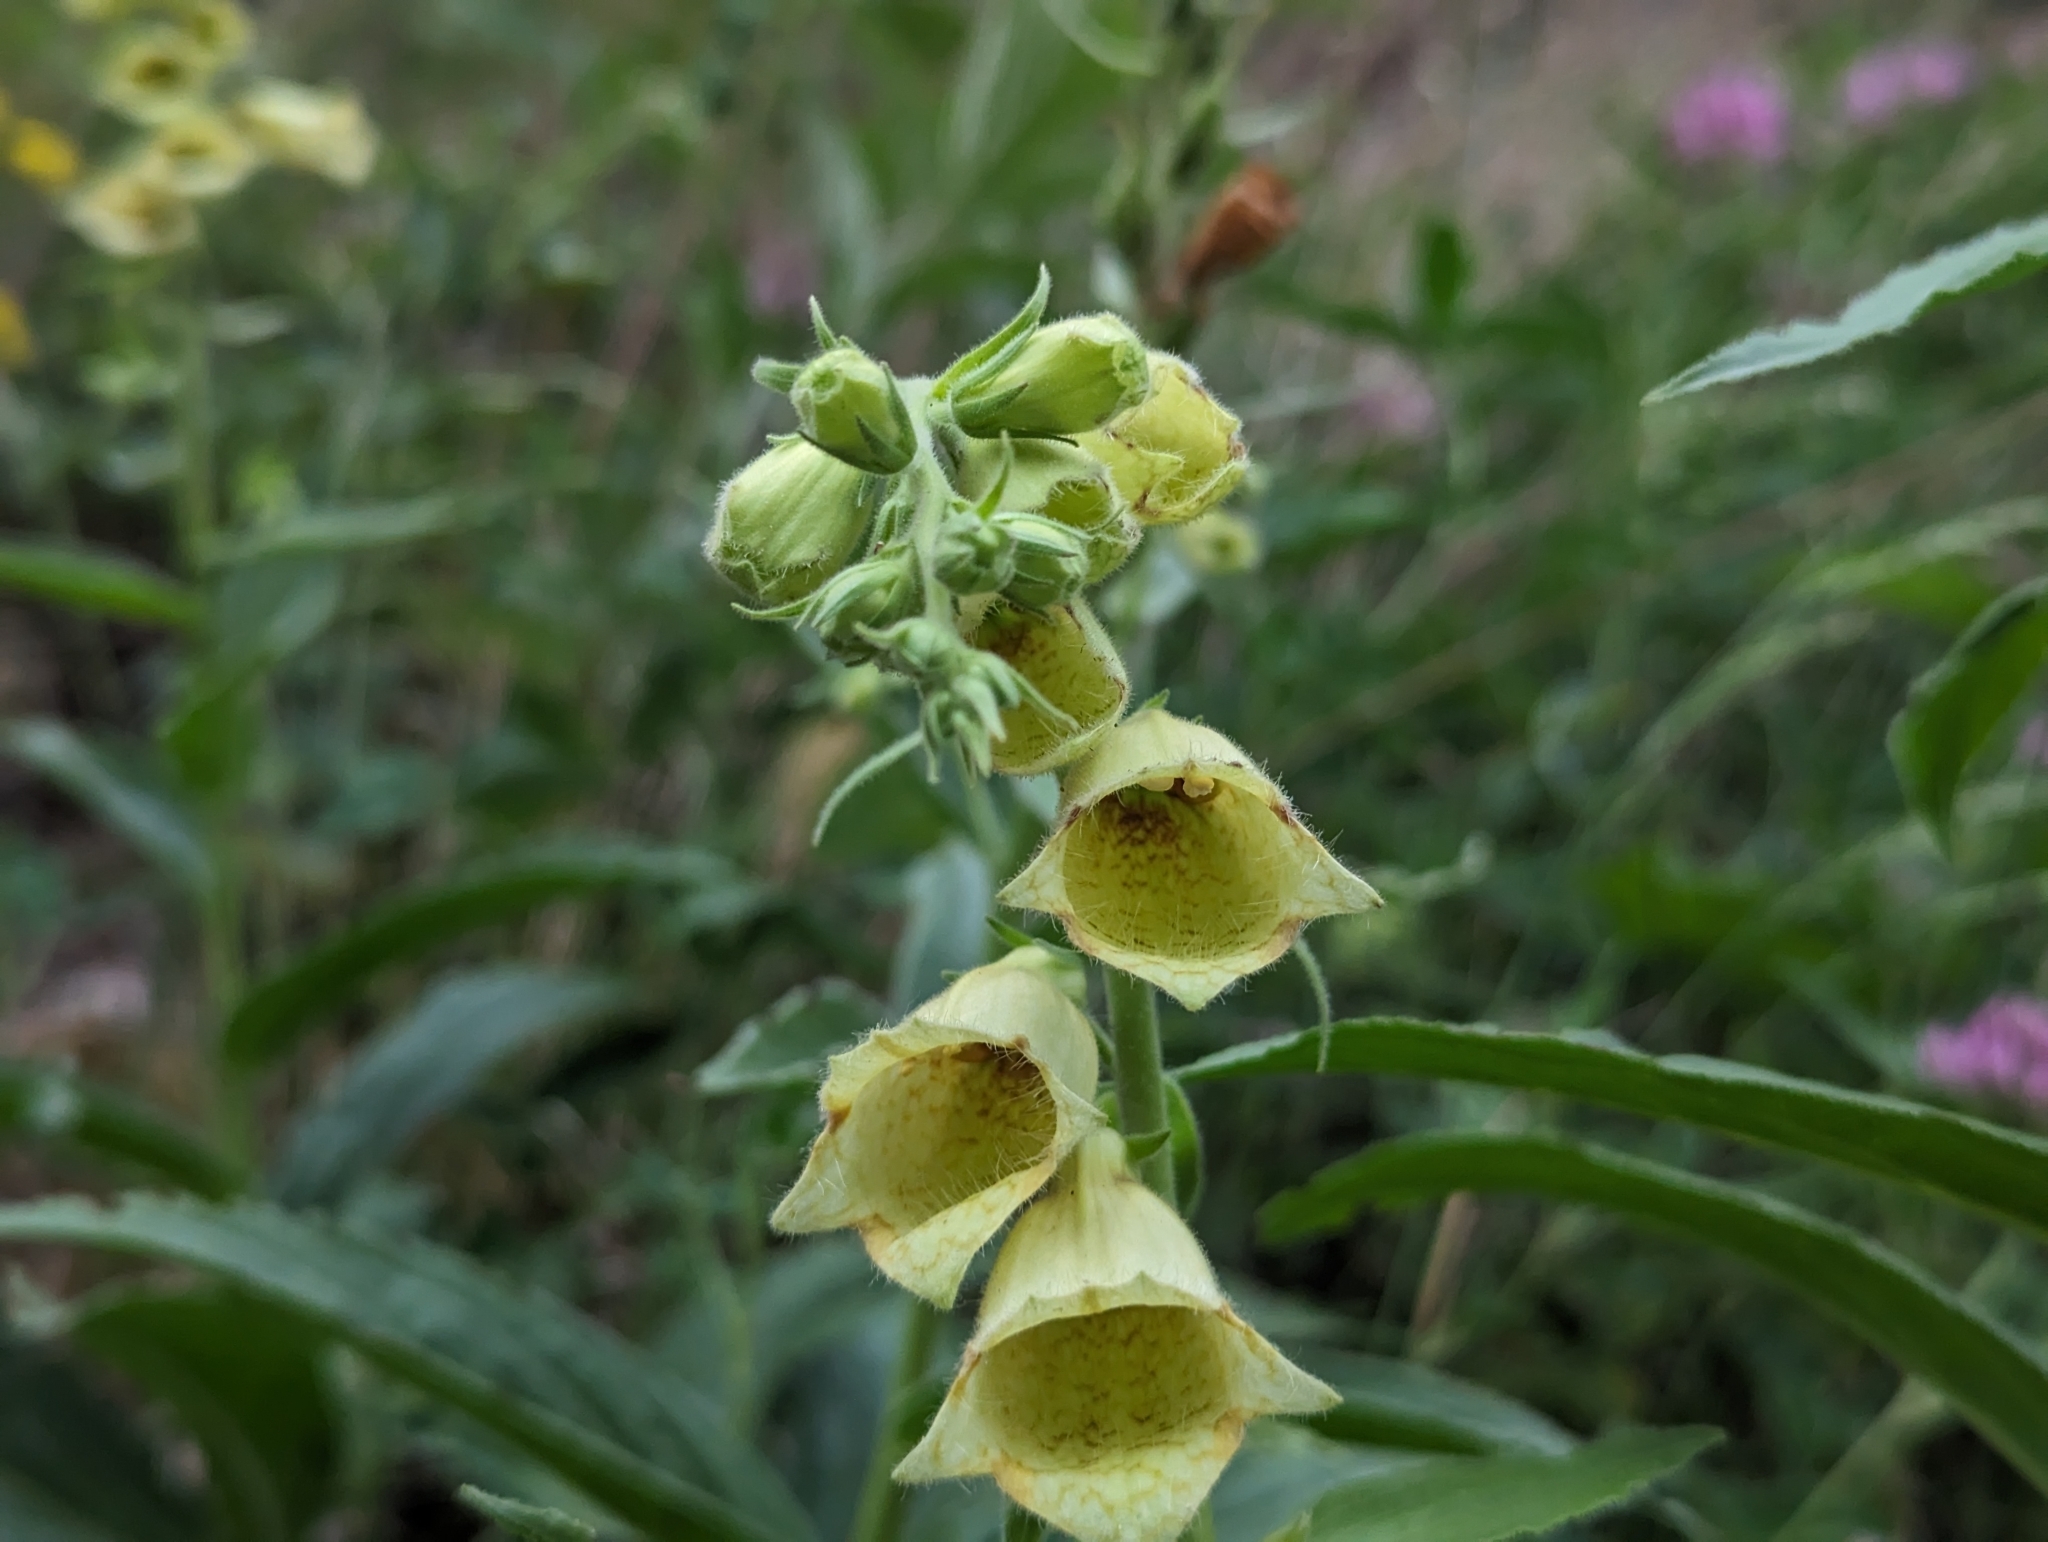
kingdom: Plantae
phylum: Tracheophyta
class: Magnoliopsida
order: Lamiales
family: Plantaginaceae
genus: Digitalis
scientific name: Digitalis grandiflora
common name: Yellow foxglove
